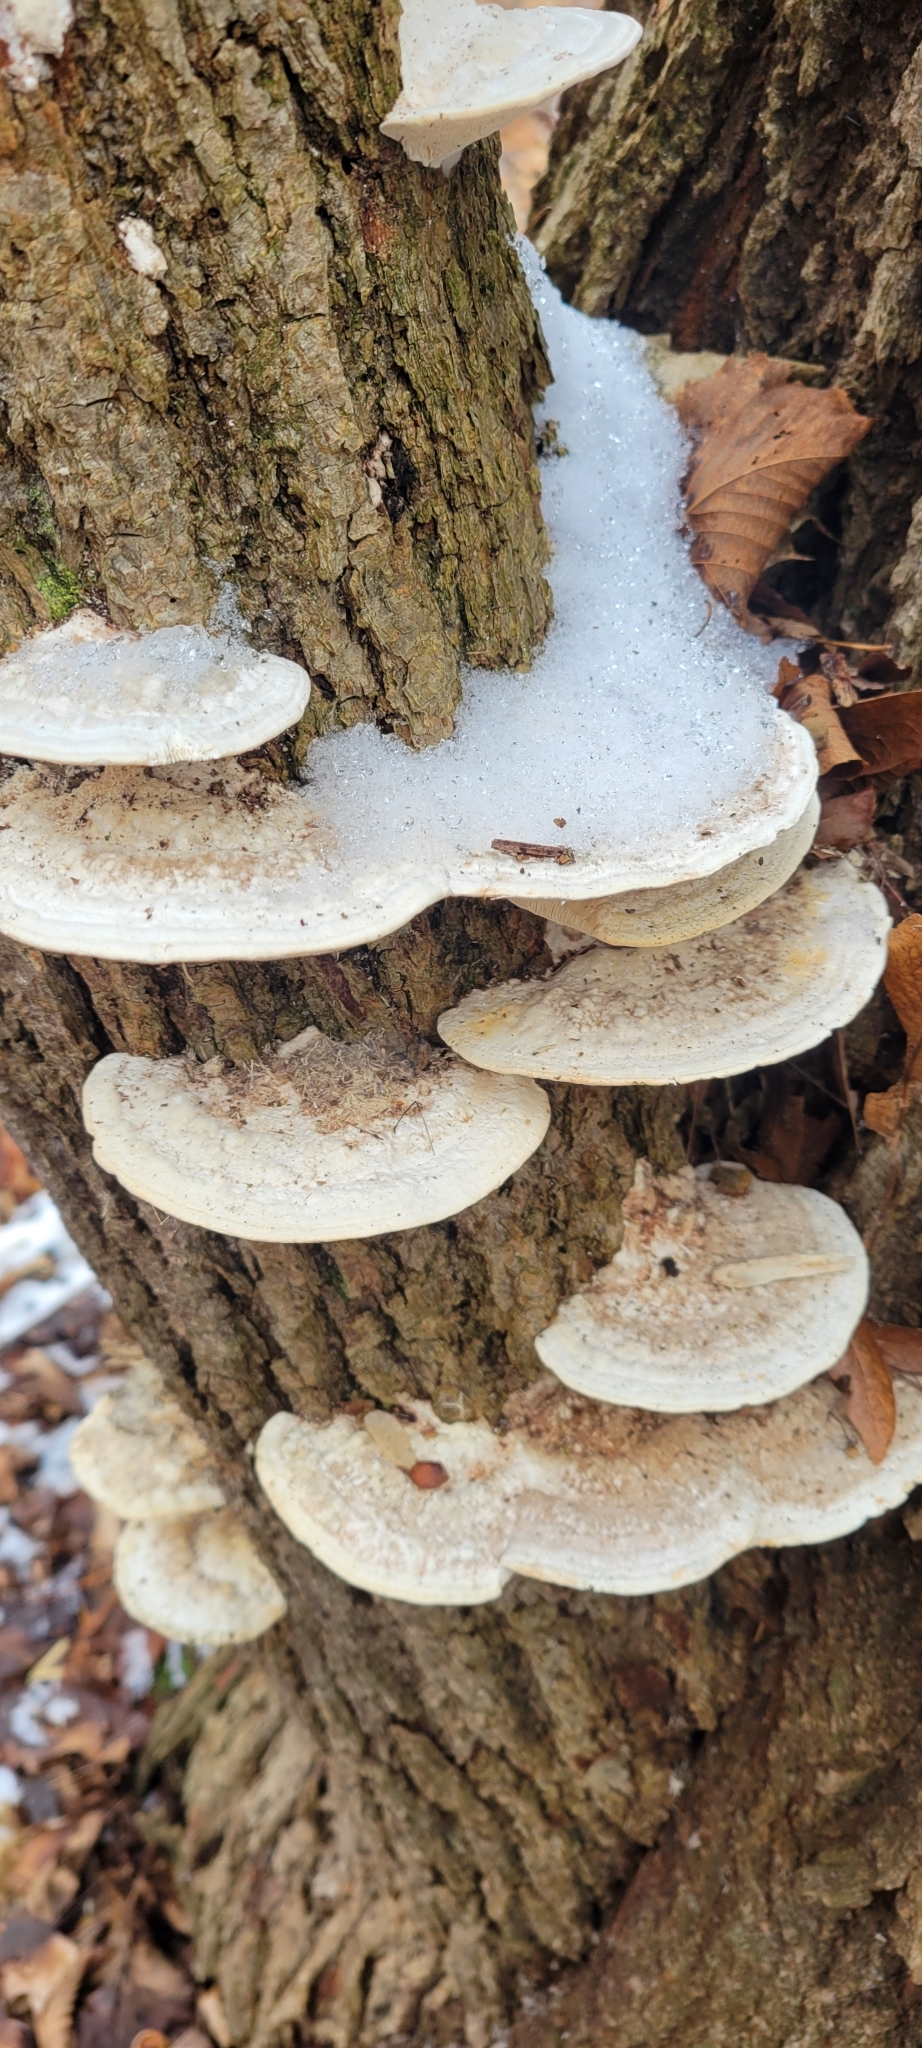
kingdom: Fungi
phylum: Basidiomycota
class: Agaricomycetes
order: Polyporales
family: Polyporaceae
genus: Trametes
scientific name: Trametes gibbosa
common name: Lumpy bracket
